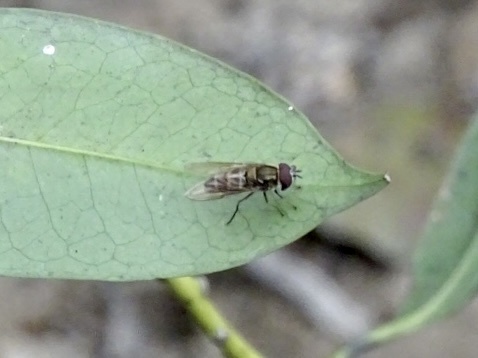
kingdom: Animalia
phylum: Arthropoda
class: Insecta
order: Diptera
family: Syrphidae
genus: Betasyrphus
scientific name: Betasyrphus serarius
